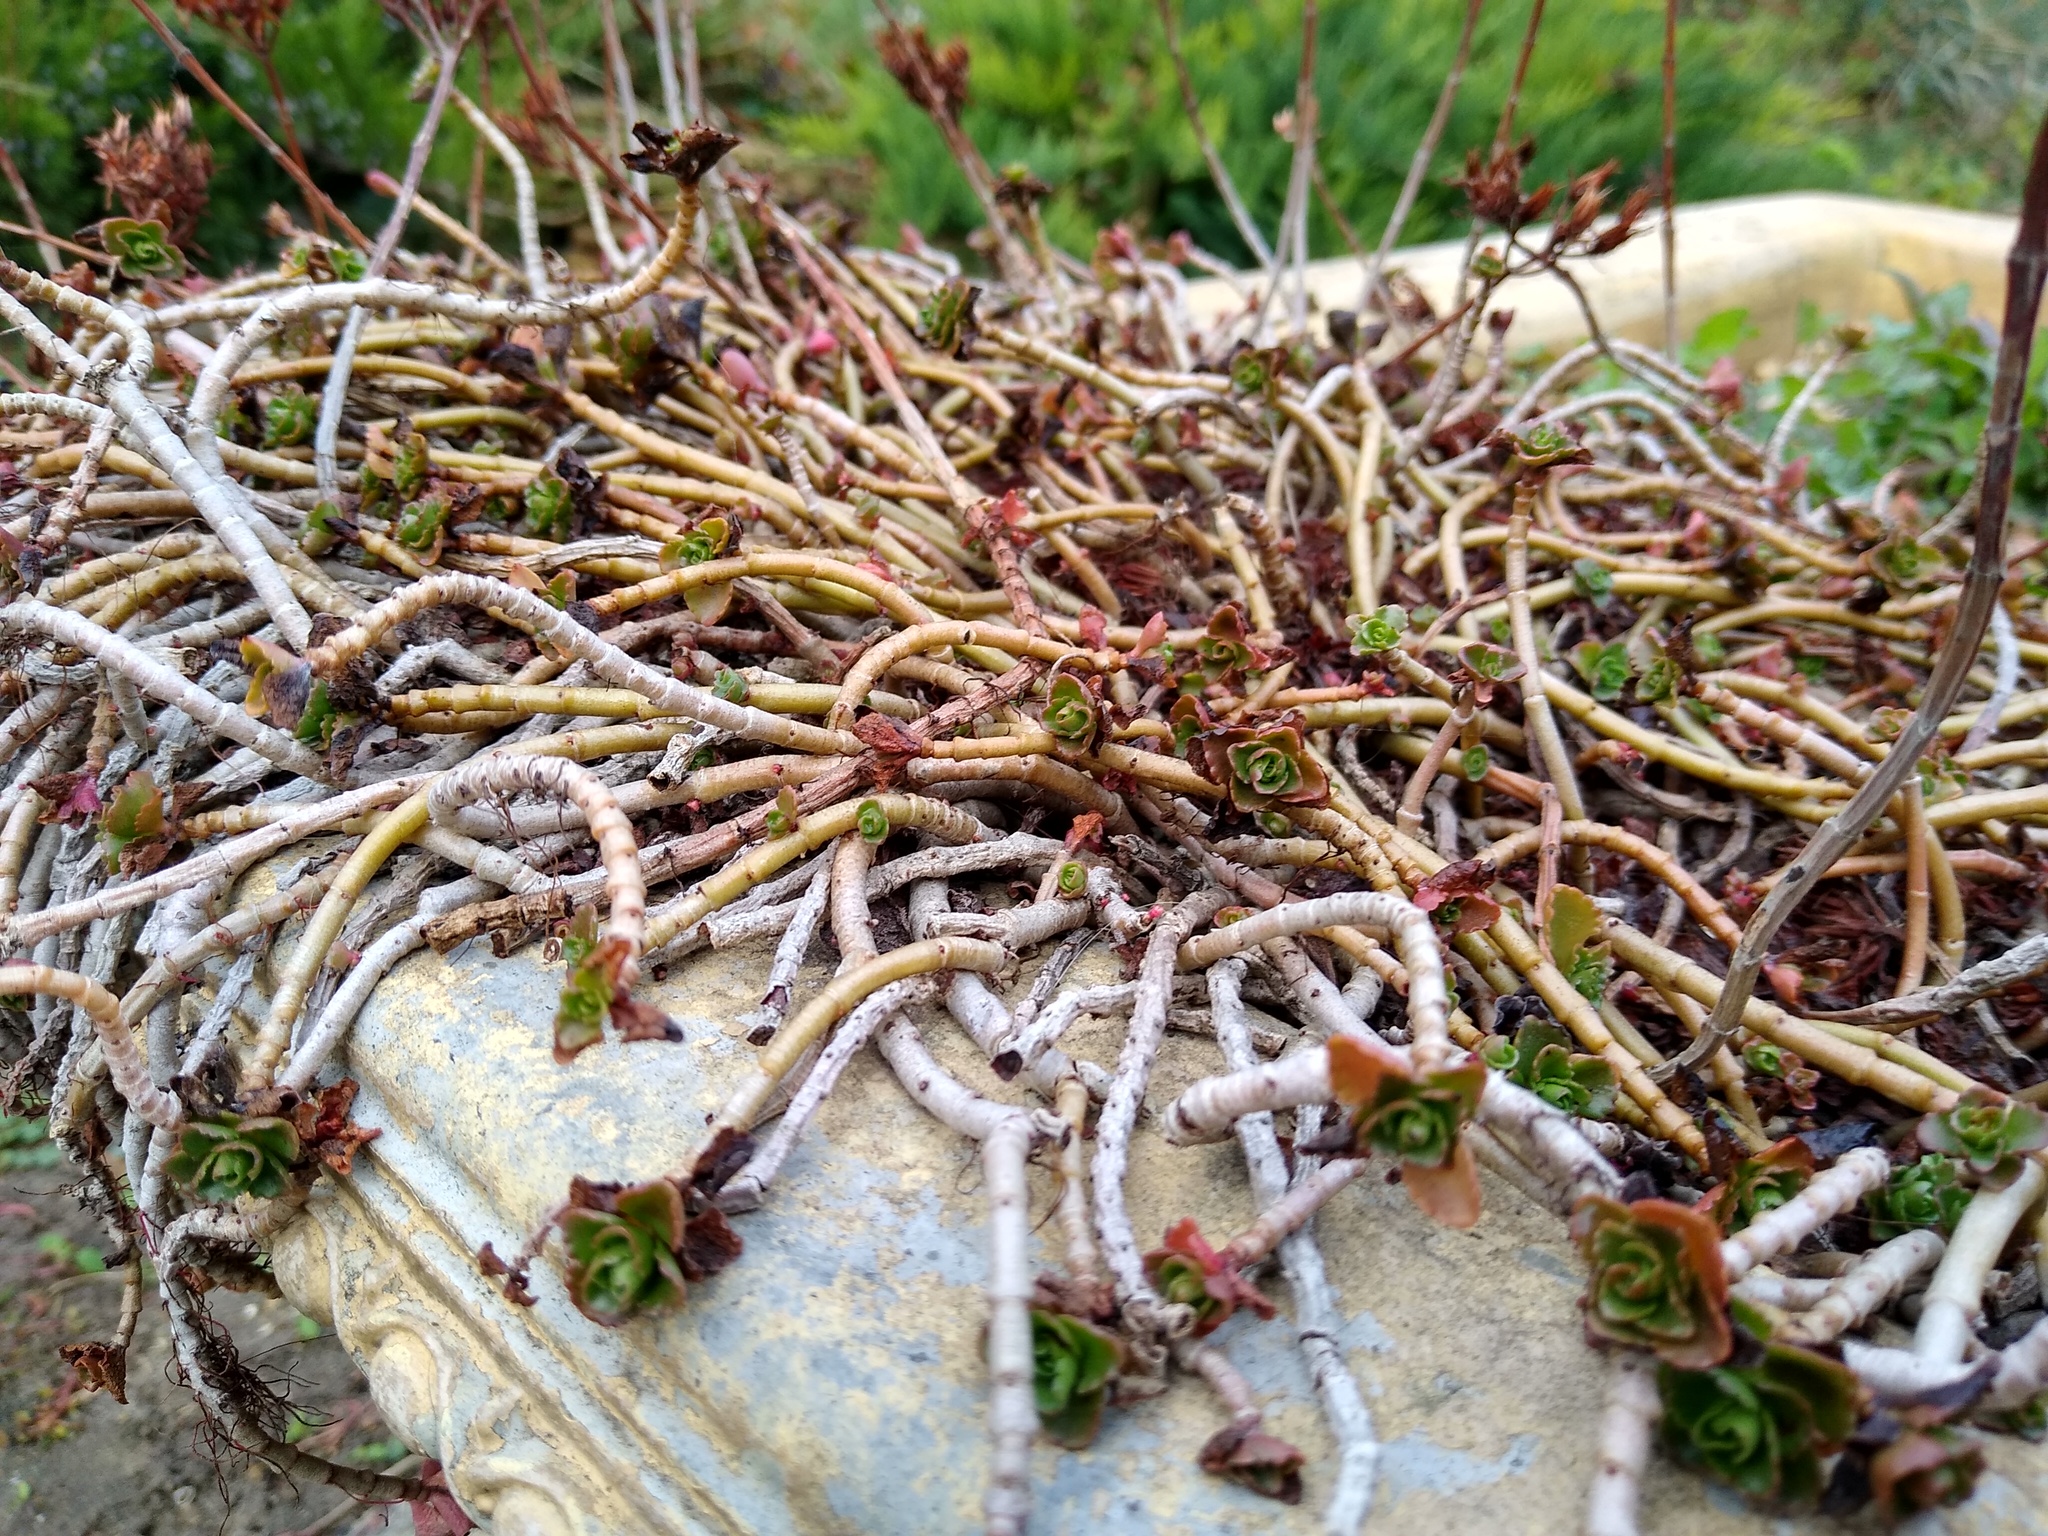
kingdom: Plantae
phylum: Tracheophyta
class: Magnoliopsida
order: Saxifragales
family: Crassulaceae
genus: Phedimus
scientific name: Phedimus spurius
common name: Caucasian stonecrop
